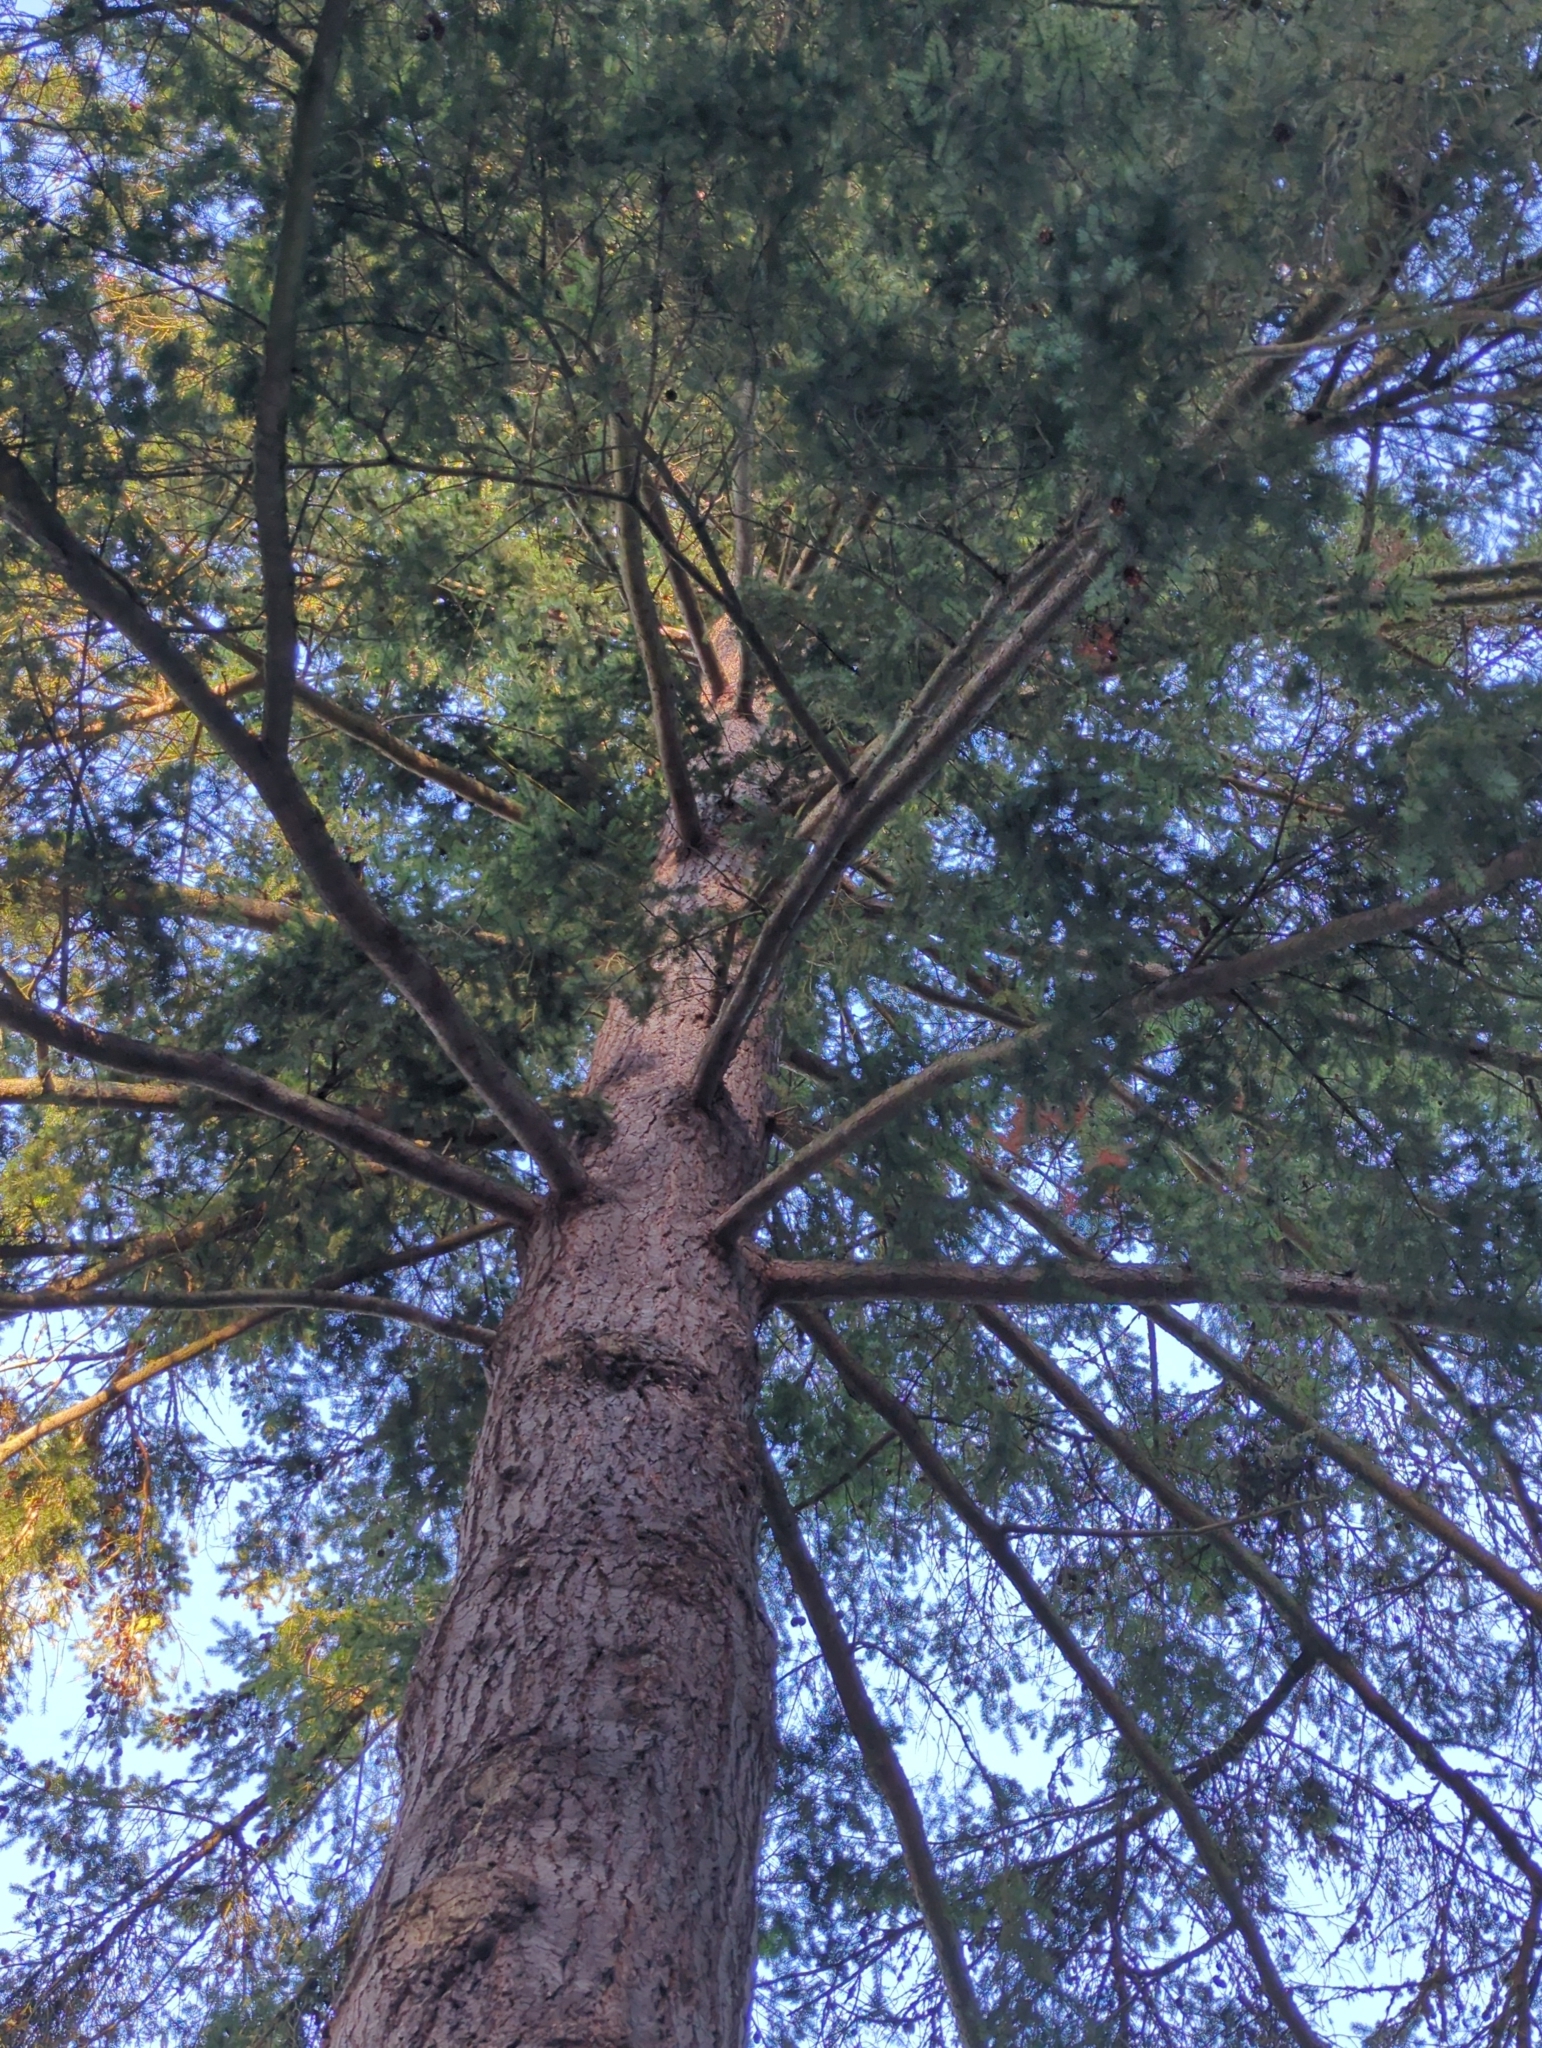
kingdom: Plantae
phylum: Tracheophyta
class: Pinopsida
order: Pinales
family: Pinaceae
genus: Pseudotsuga
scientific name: Pseudotsuga menziesii
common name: Douglas fir
